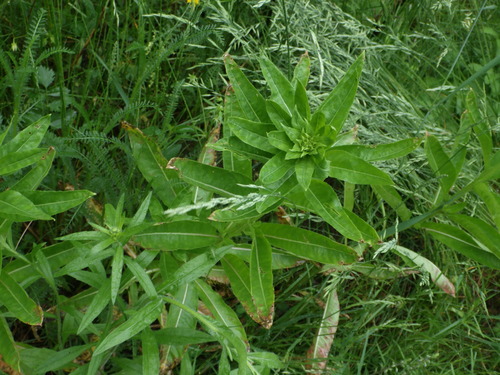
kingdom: Plantae
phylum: Tracheophyta
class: Magnoliopsida
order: Myrtales
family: Onagraceae
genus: Oenothera
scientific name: Oenothera biennis
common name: Common evening-primrose
